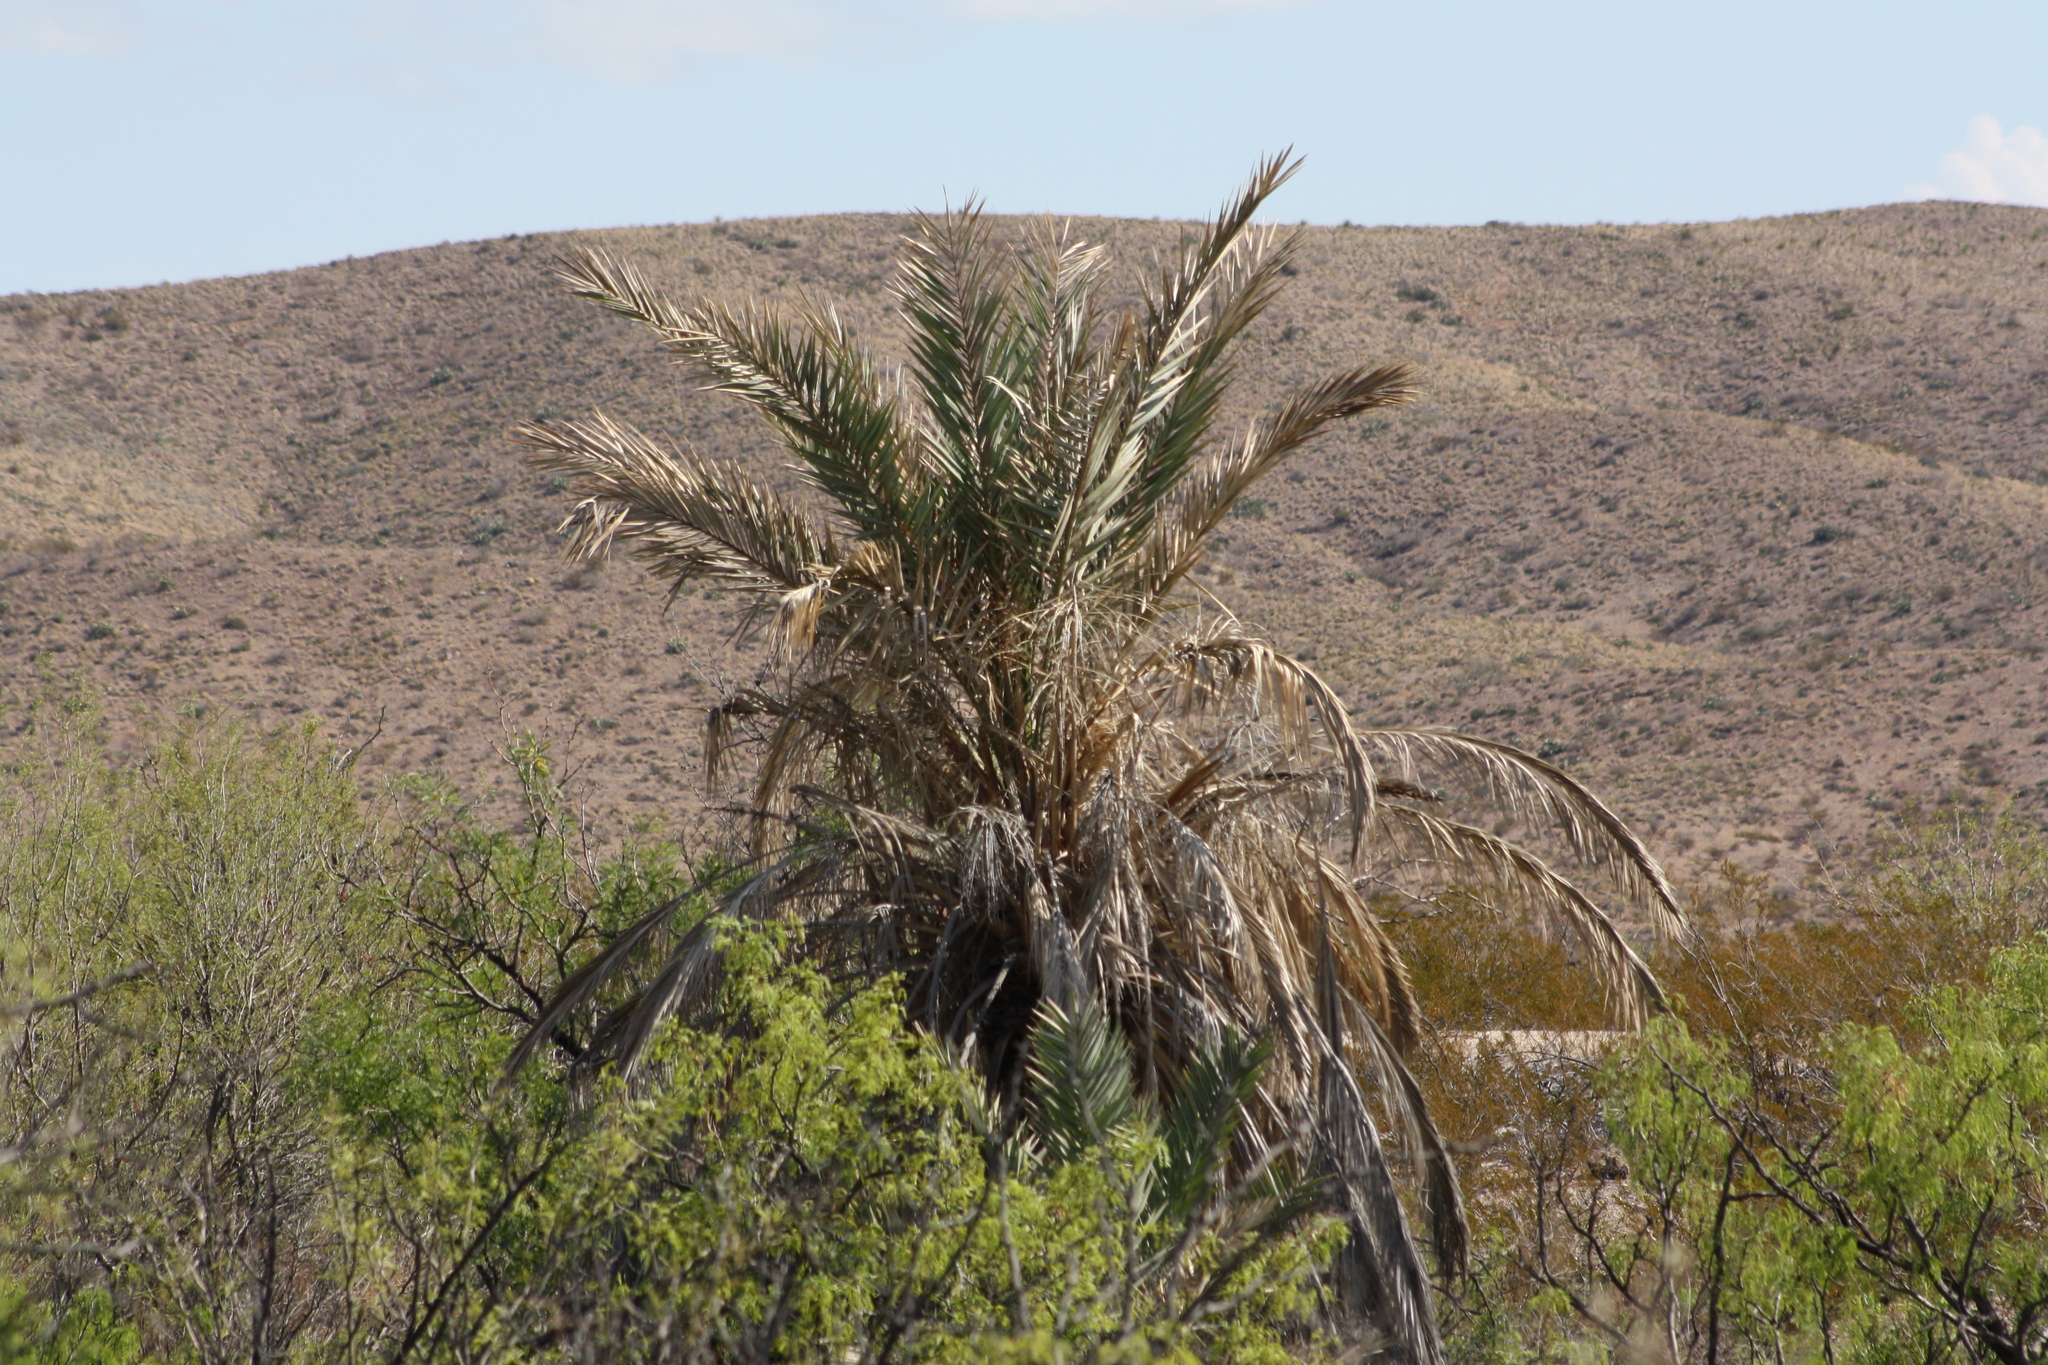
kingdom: Plantae
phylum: Tracheophyta
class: Liliopsida
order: Arecales
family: Arecaceae
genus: Phoenix
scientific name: Phoenix dactylifera
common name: Date palm
